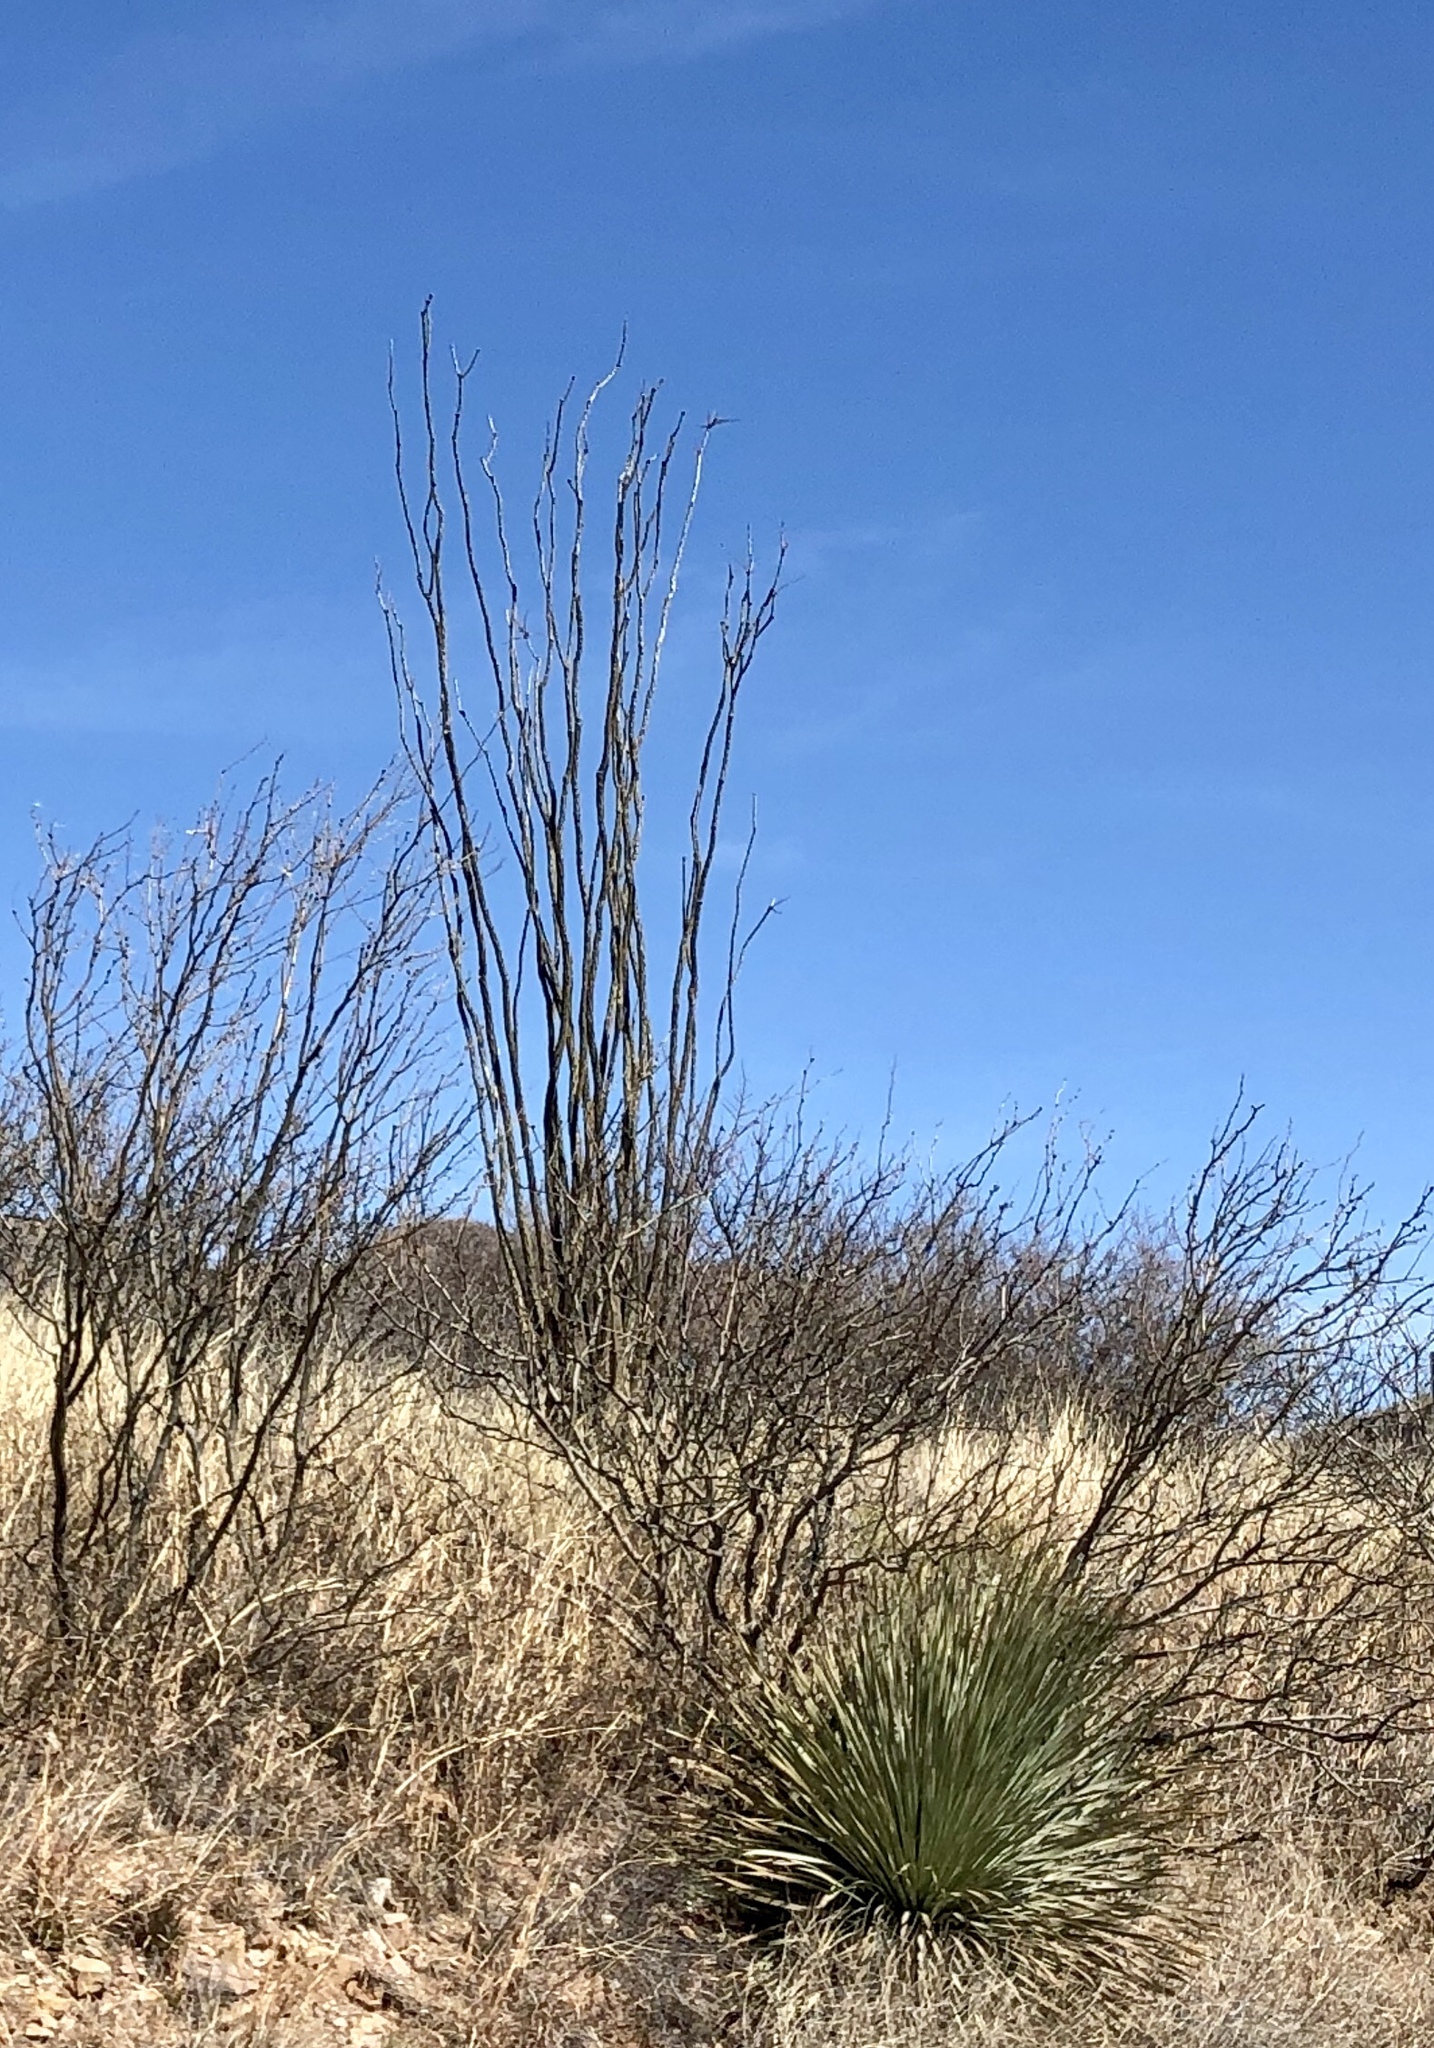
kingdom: Plantae
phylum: Tracheophyta
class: Magnoliopsida
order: Ericales
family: Fouquieriaceae
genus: Fouquieria
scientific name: Fouquieria splendens
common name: Vine-cactus
